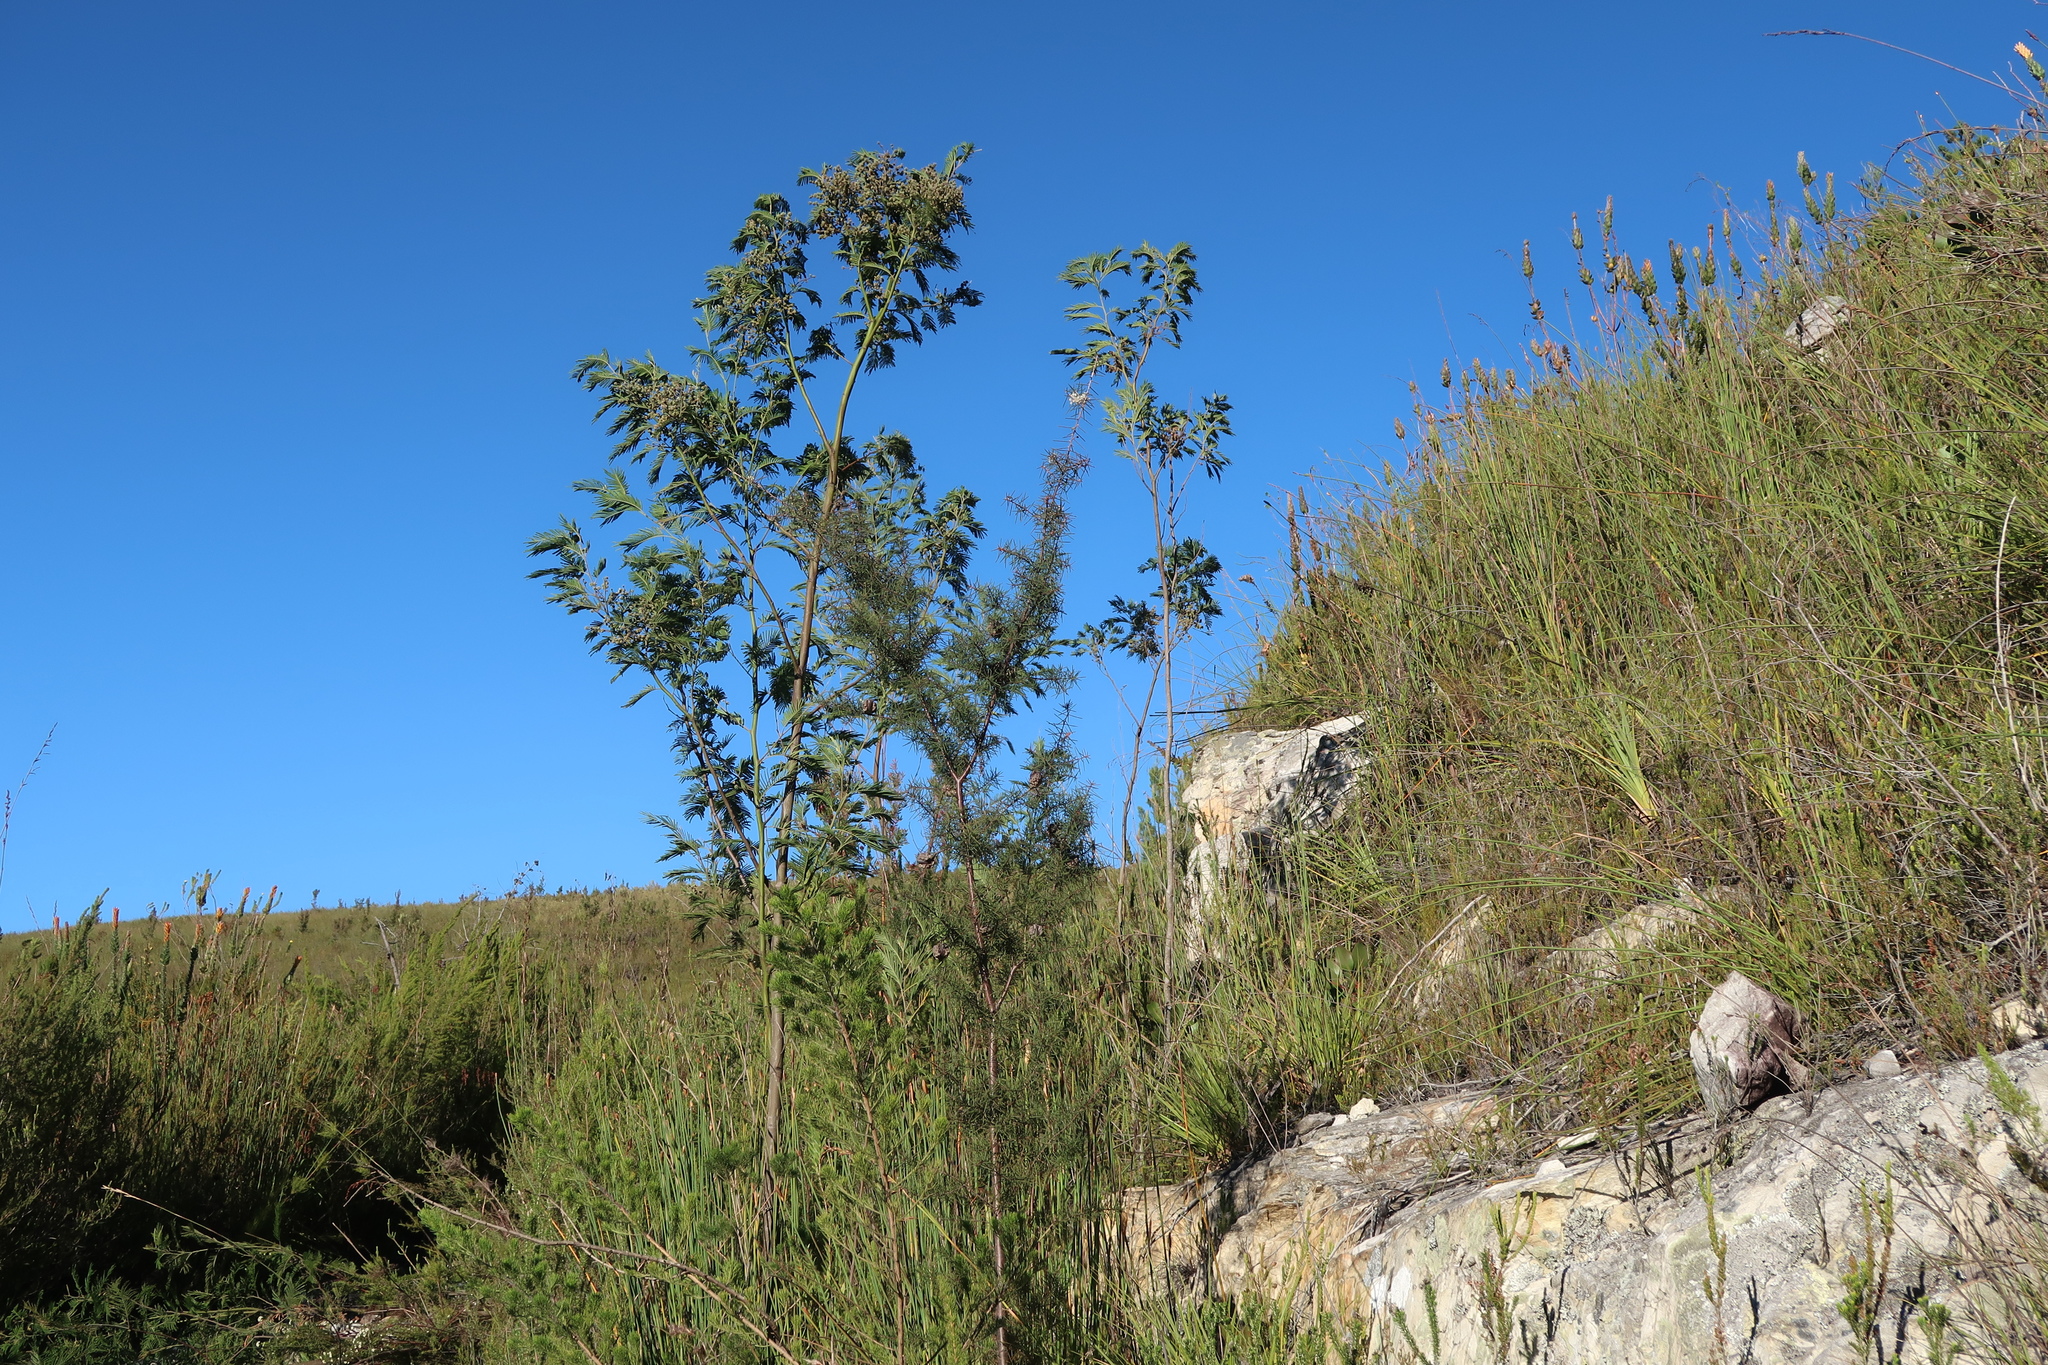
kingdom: Plantae
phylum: Tracheophyta
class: Magnoliopsida
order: Fabales
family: Fabaceae
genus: Acacia
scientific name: Acacia mearnsii
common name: Black wattle
